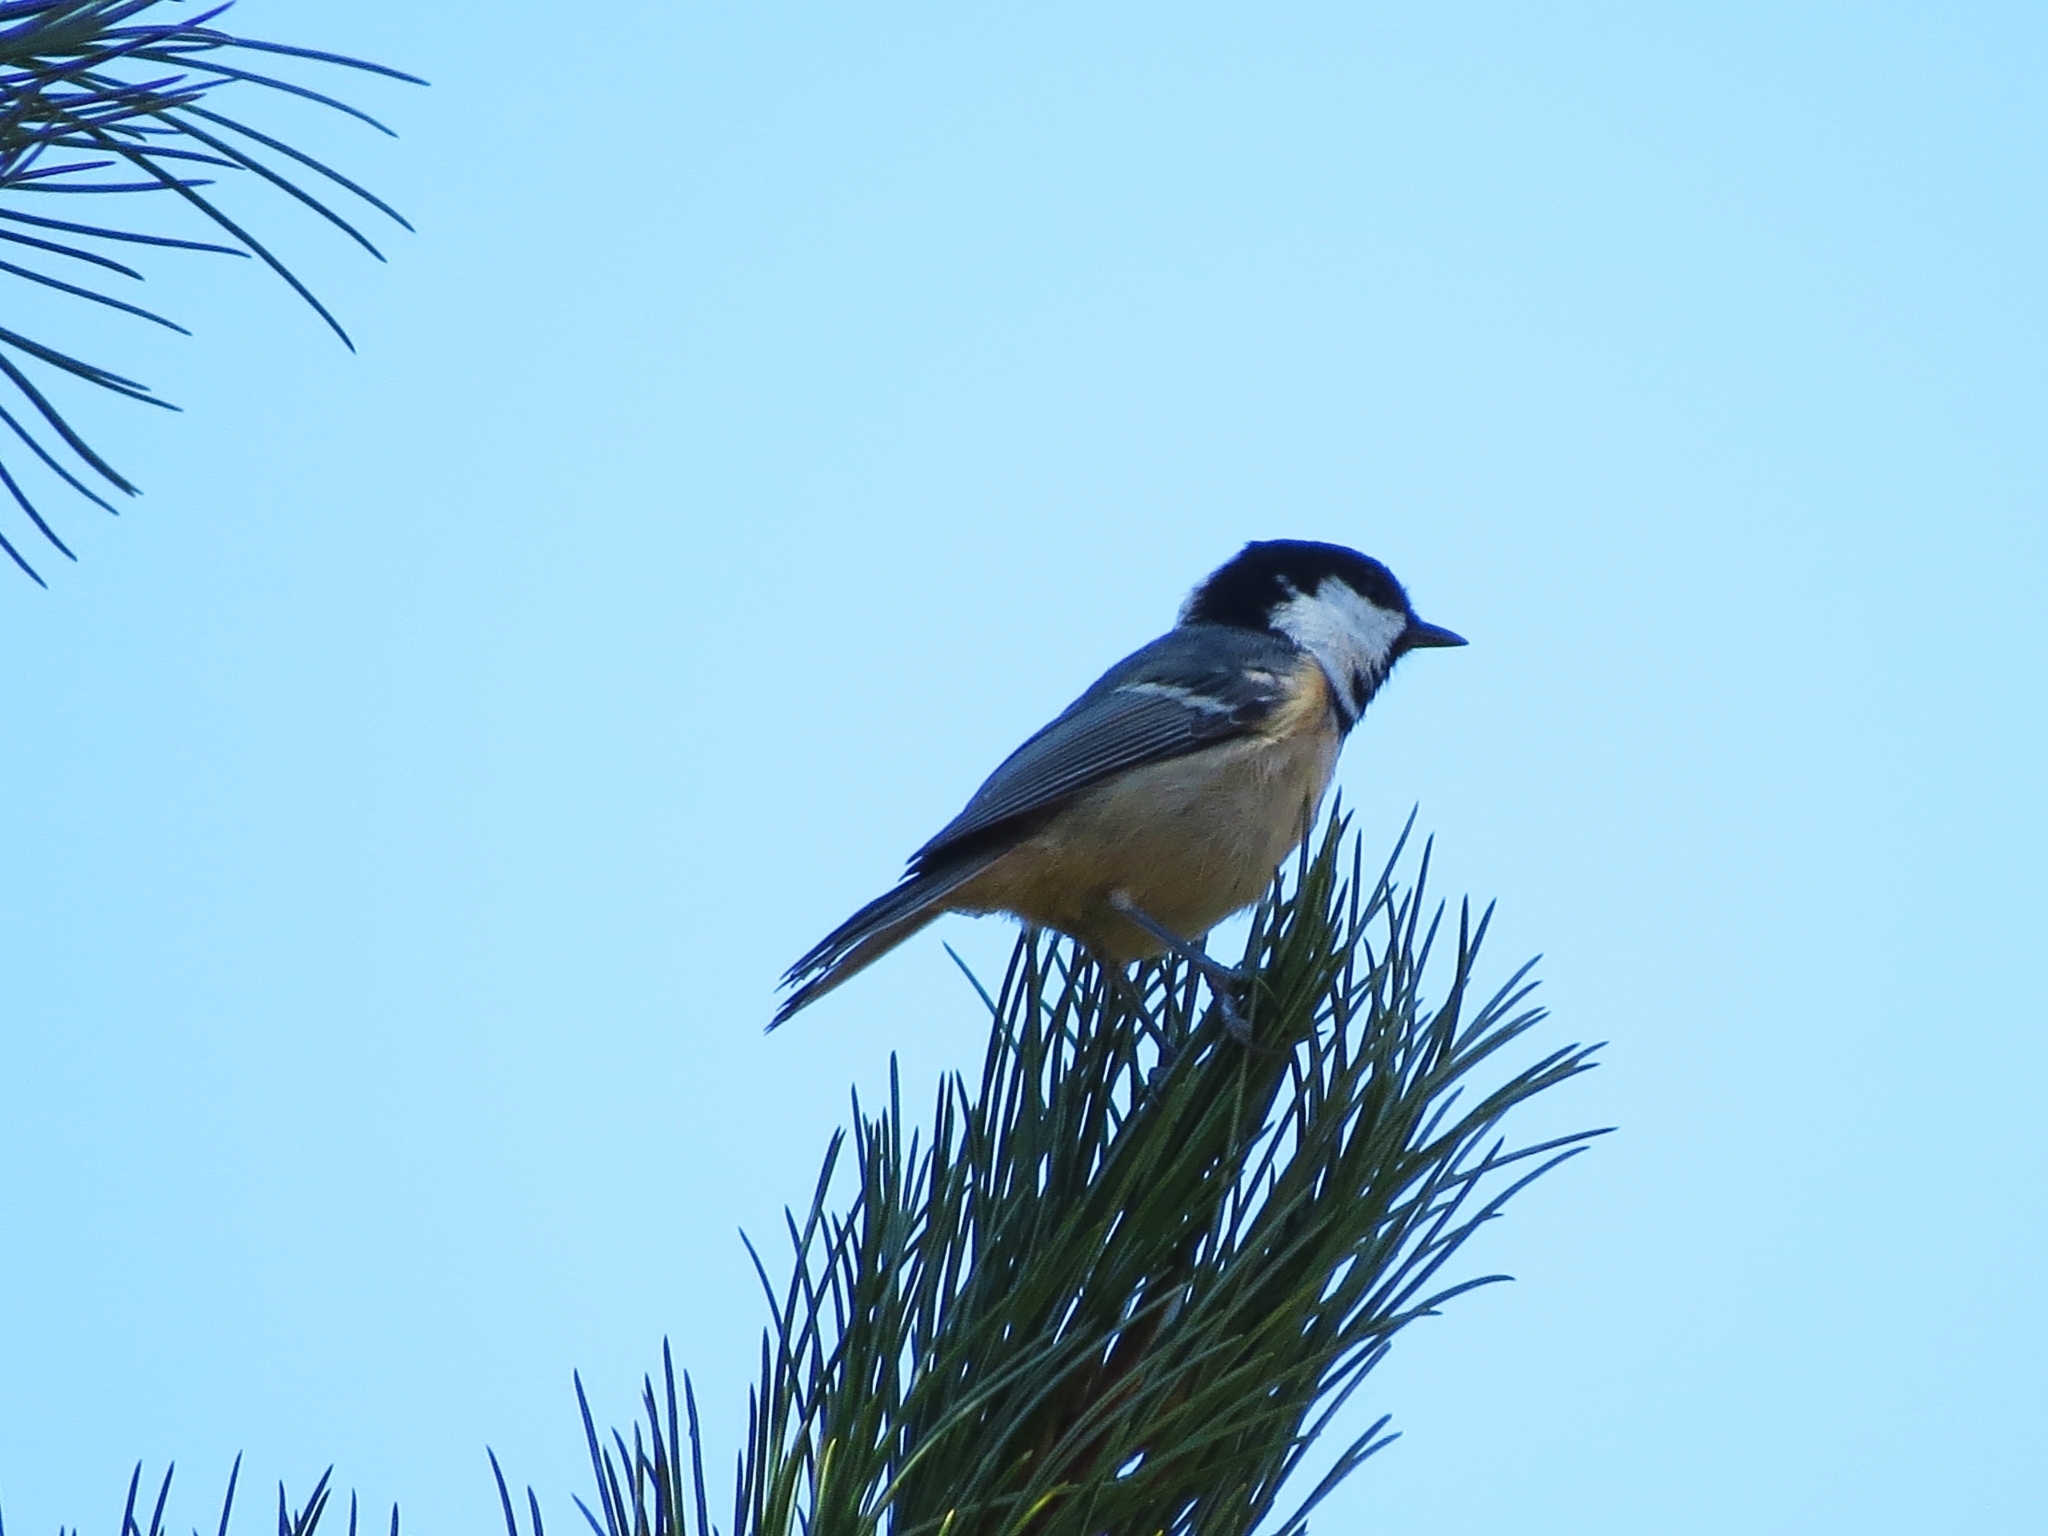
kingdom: Animalia
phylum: Chordata
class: Aves
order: Passeriformes
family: Paridae
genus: Periparus
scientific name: Periparus ater
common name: Coal tit
